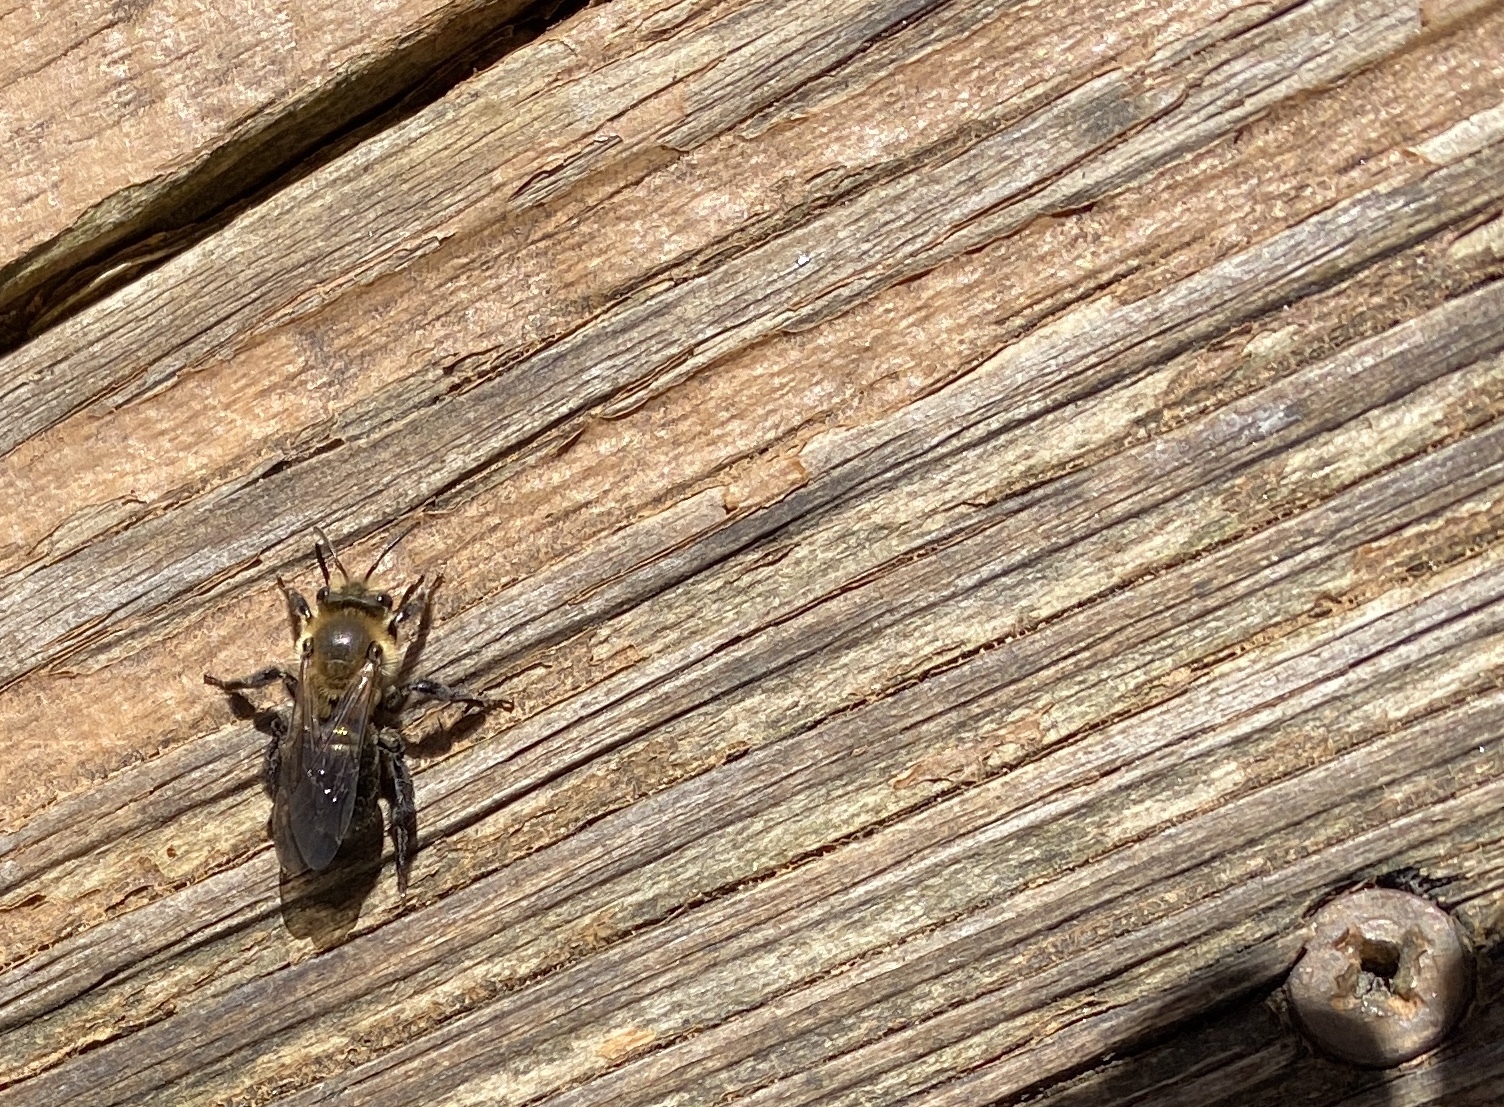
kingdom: Animalia
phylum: Arthropoda
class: Insecta
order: Hymenoptera
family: Andrenidae
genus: Andrena
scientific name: Andrena vicina
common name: Neighborly mining bee
